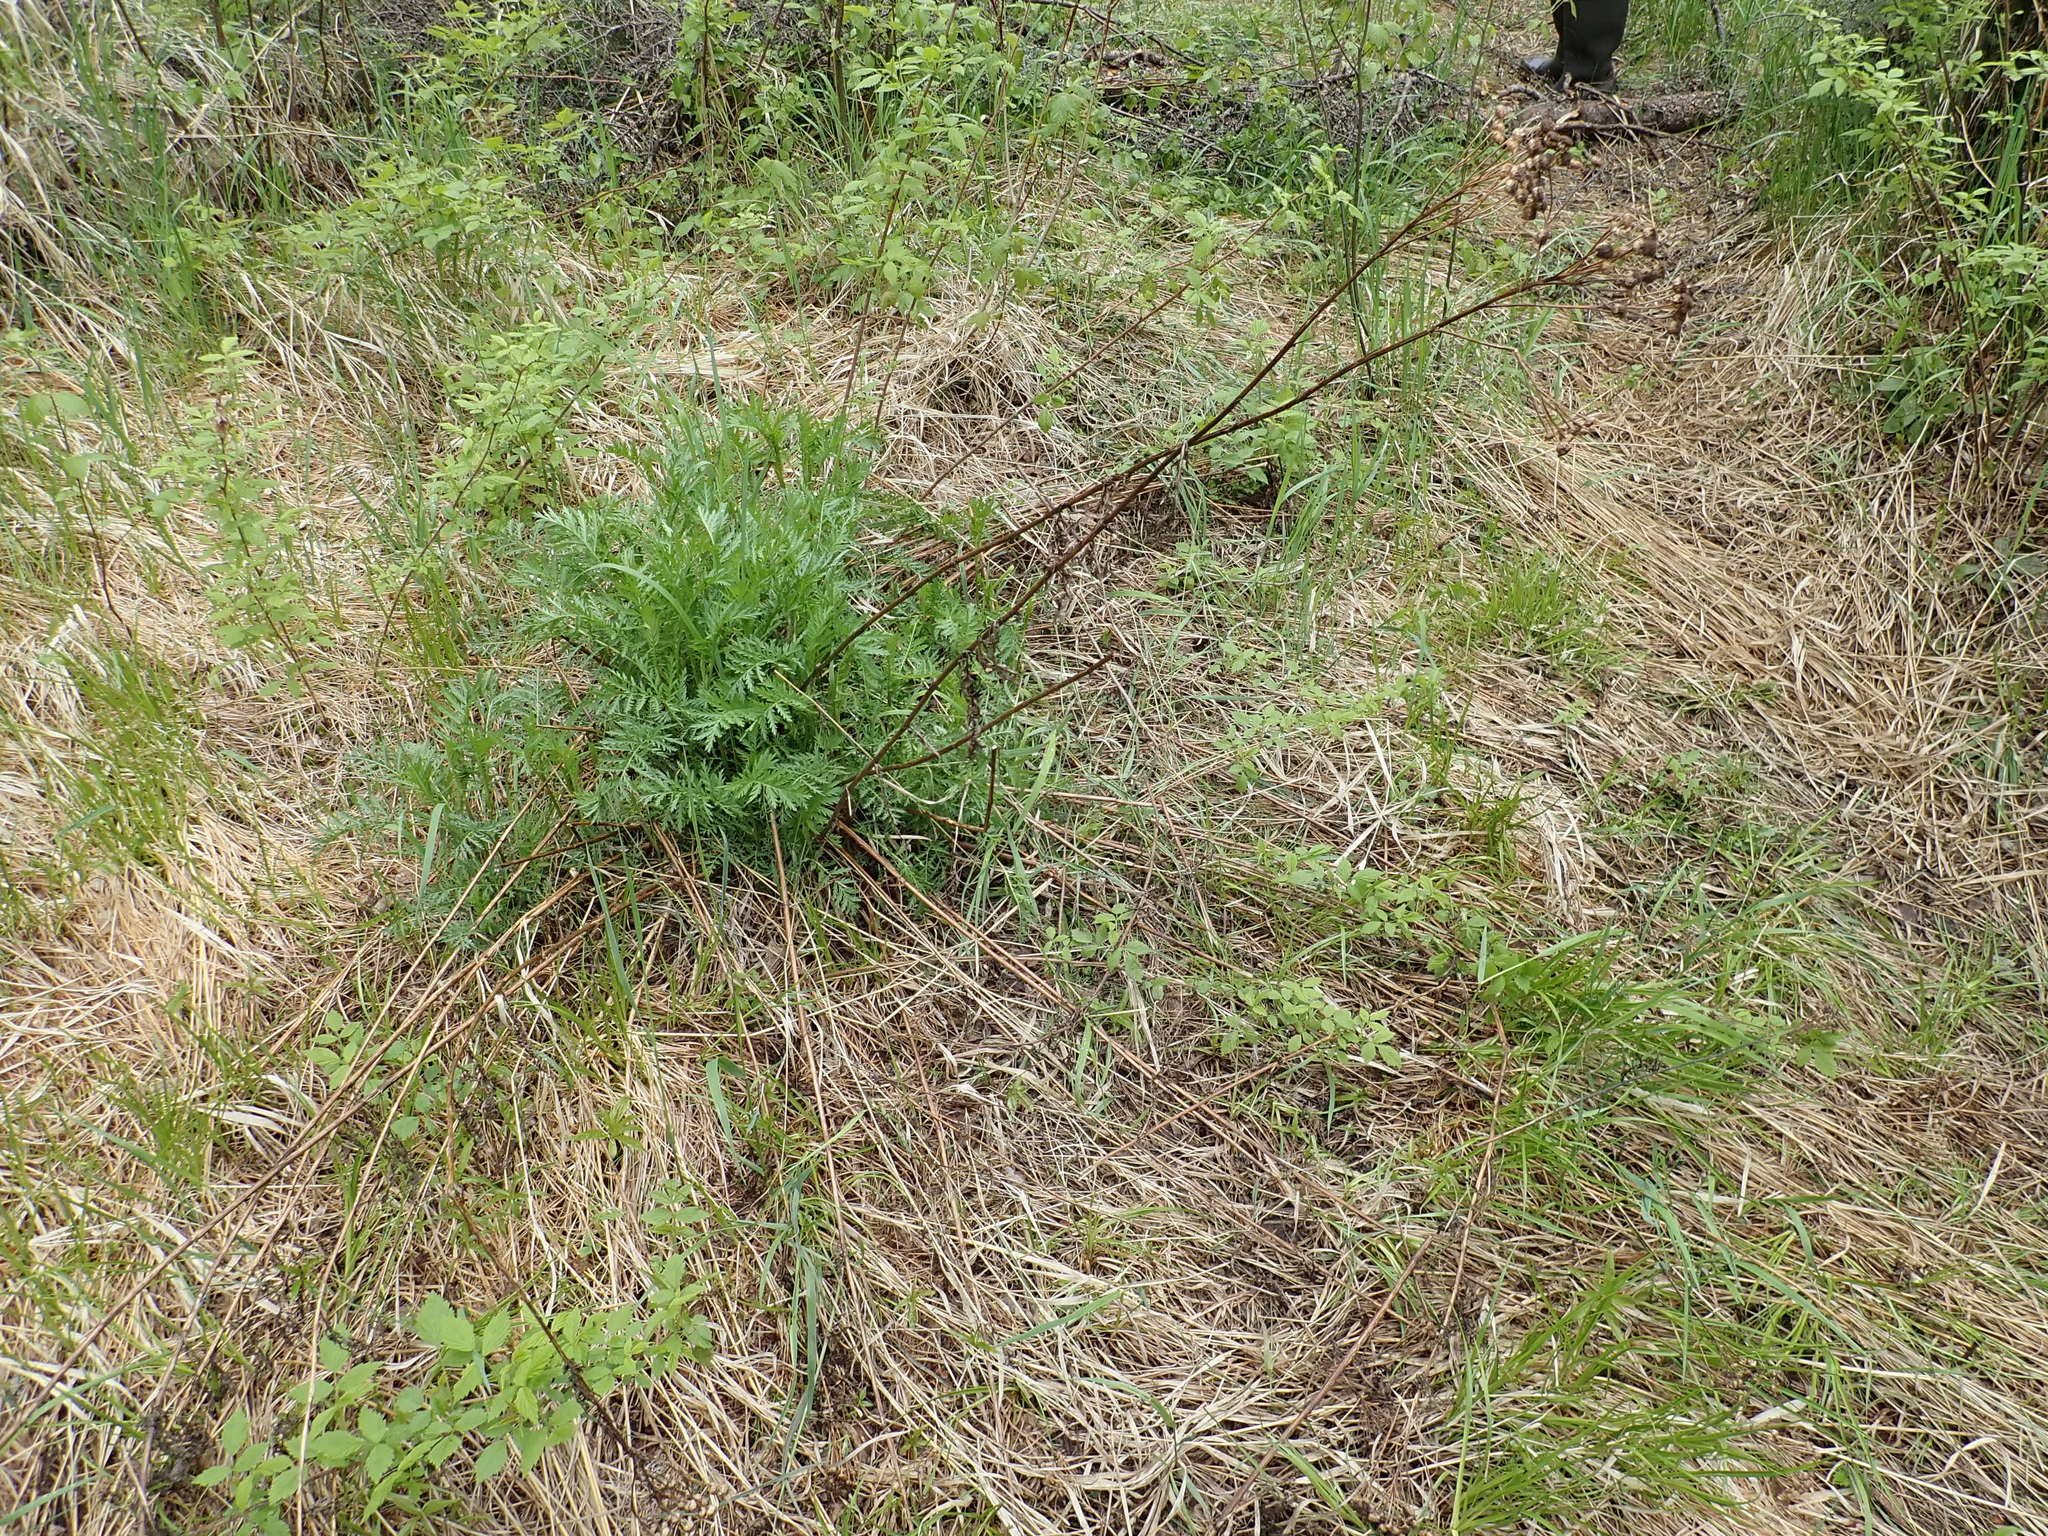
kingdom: Plantae
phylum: Tracheophyta
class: Magnoliopsida
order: Asterales
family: Asteraceae
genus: Tanacetum
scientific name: Tanacetum vulgare
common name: Common tansy
